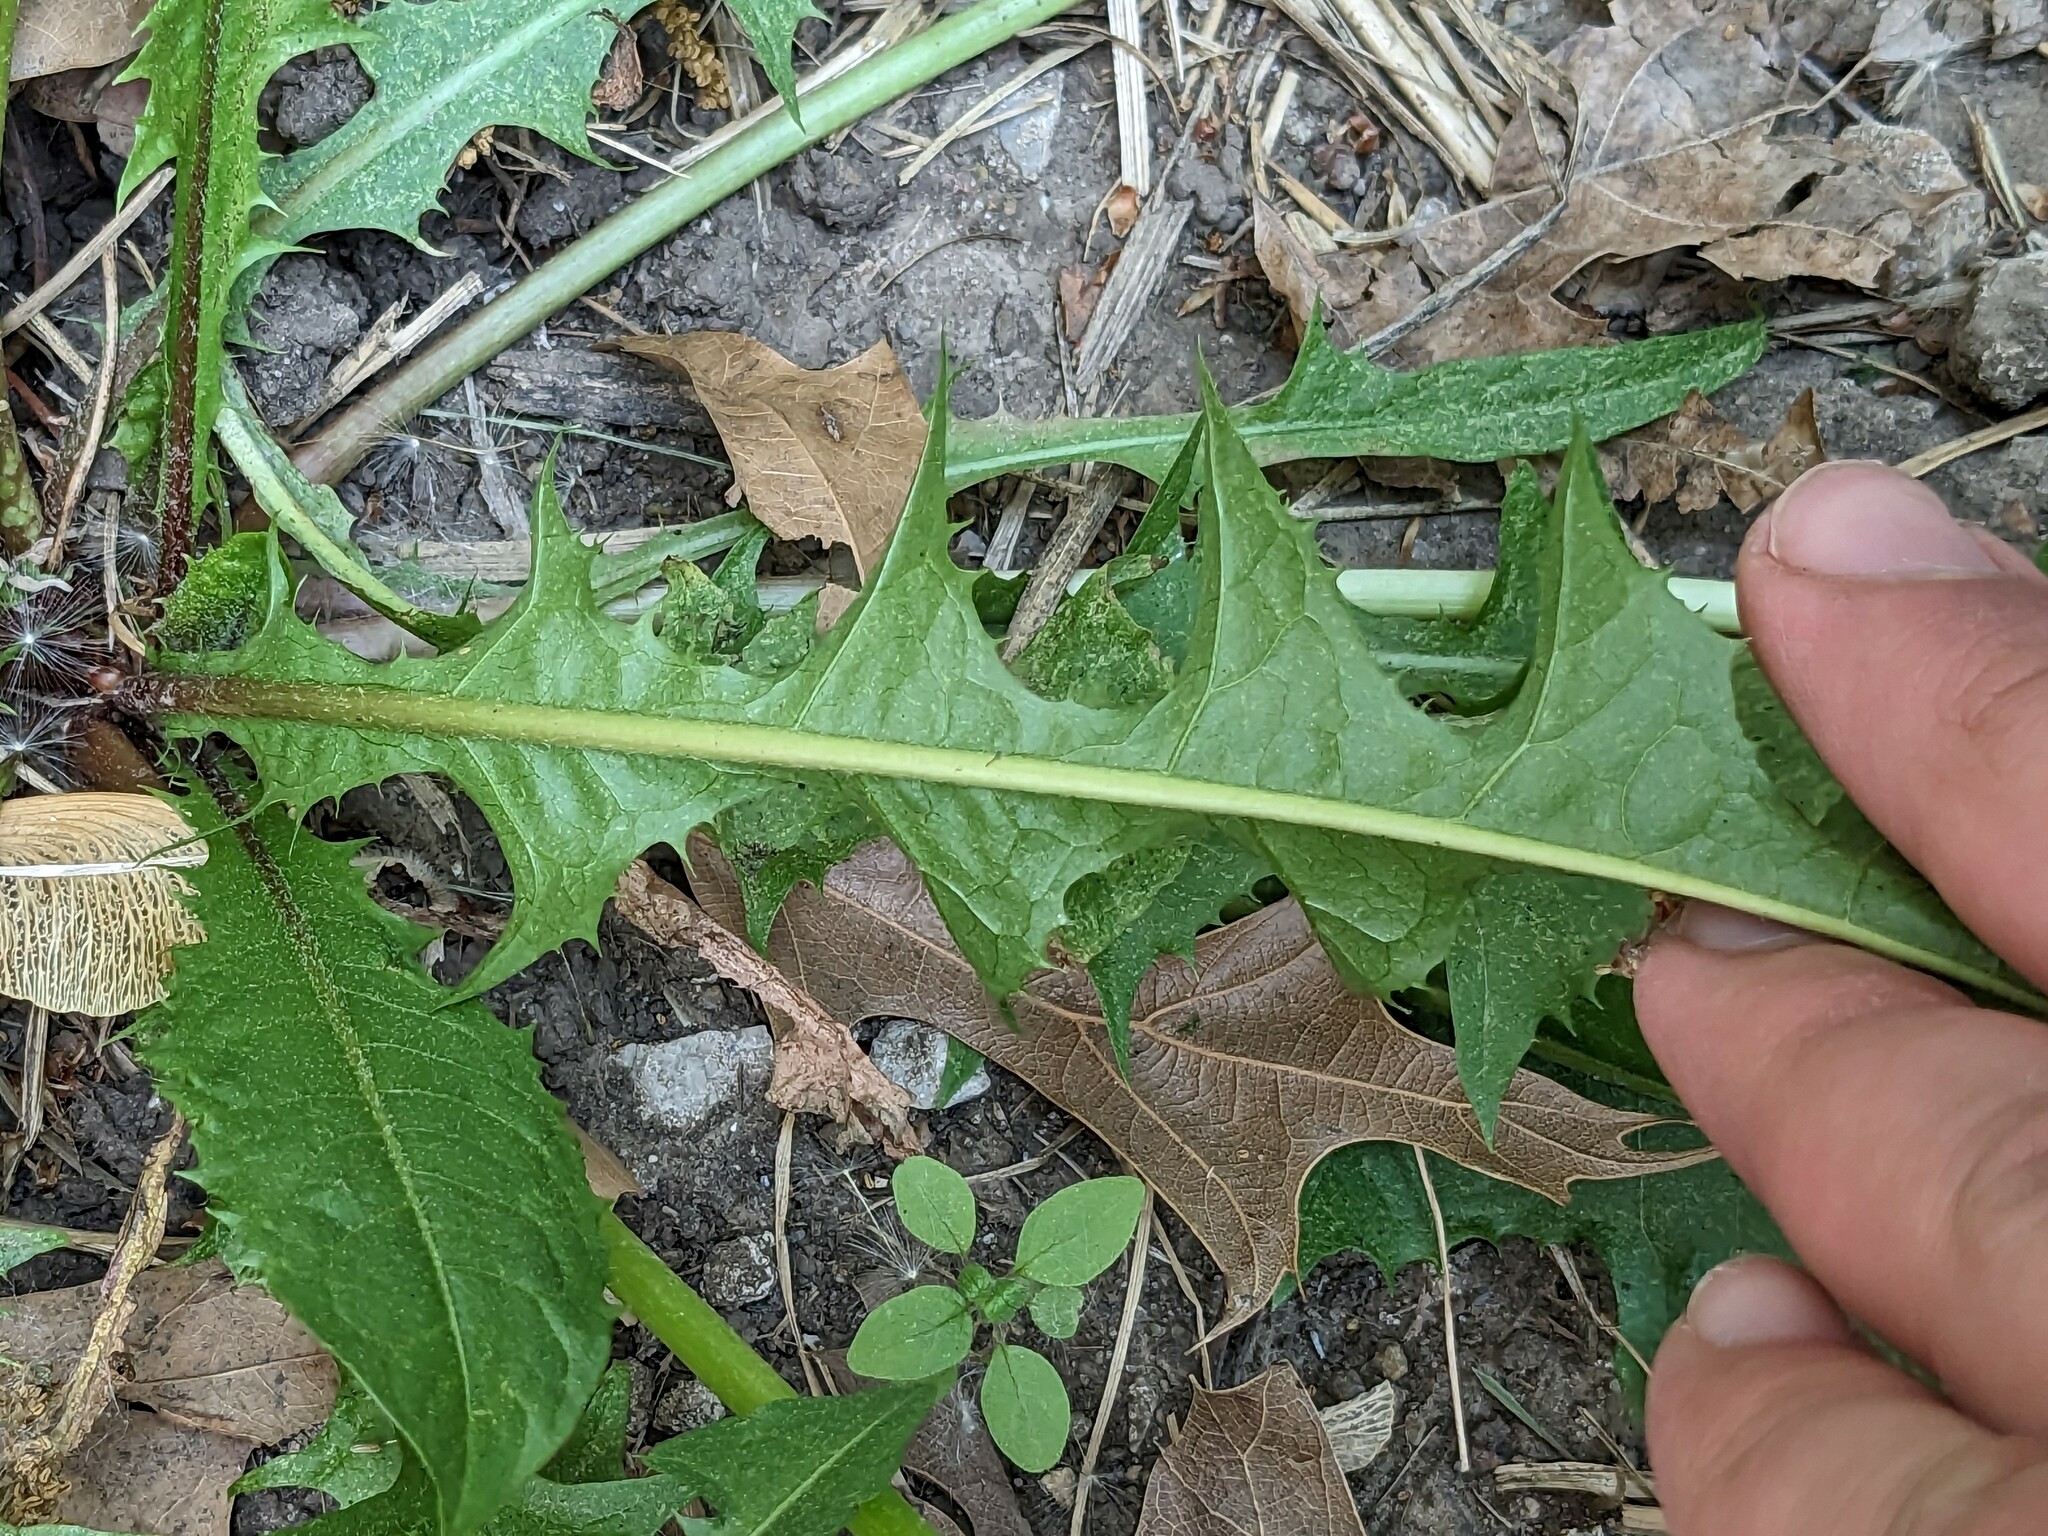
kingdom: Plantae
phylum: Tracheophyta
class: Magnoliopsida
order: Asterales
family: Asteraceae
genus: Taraxacum
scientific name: Taraxacum officinale
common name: Common dandelion
